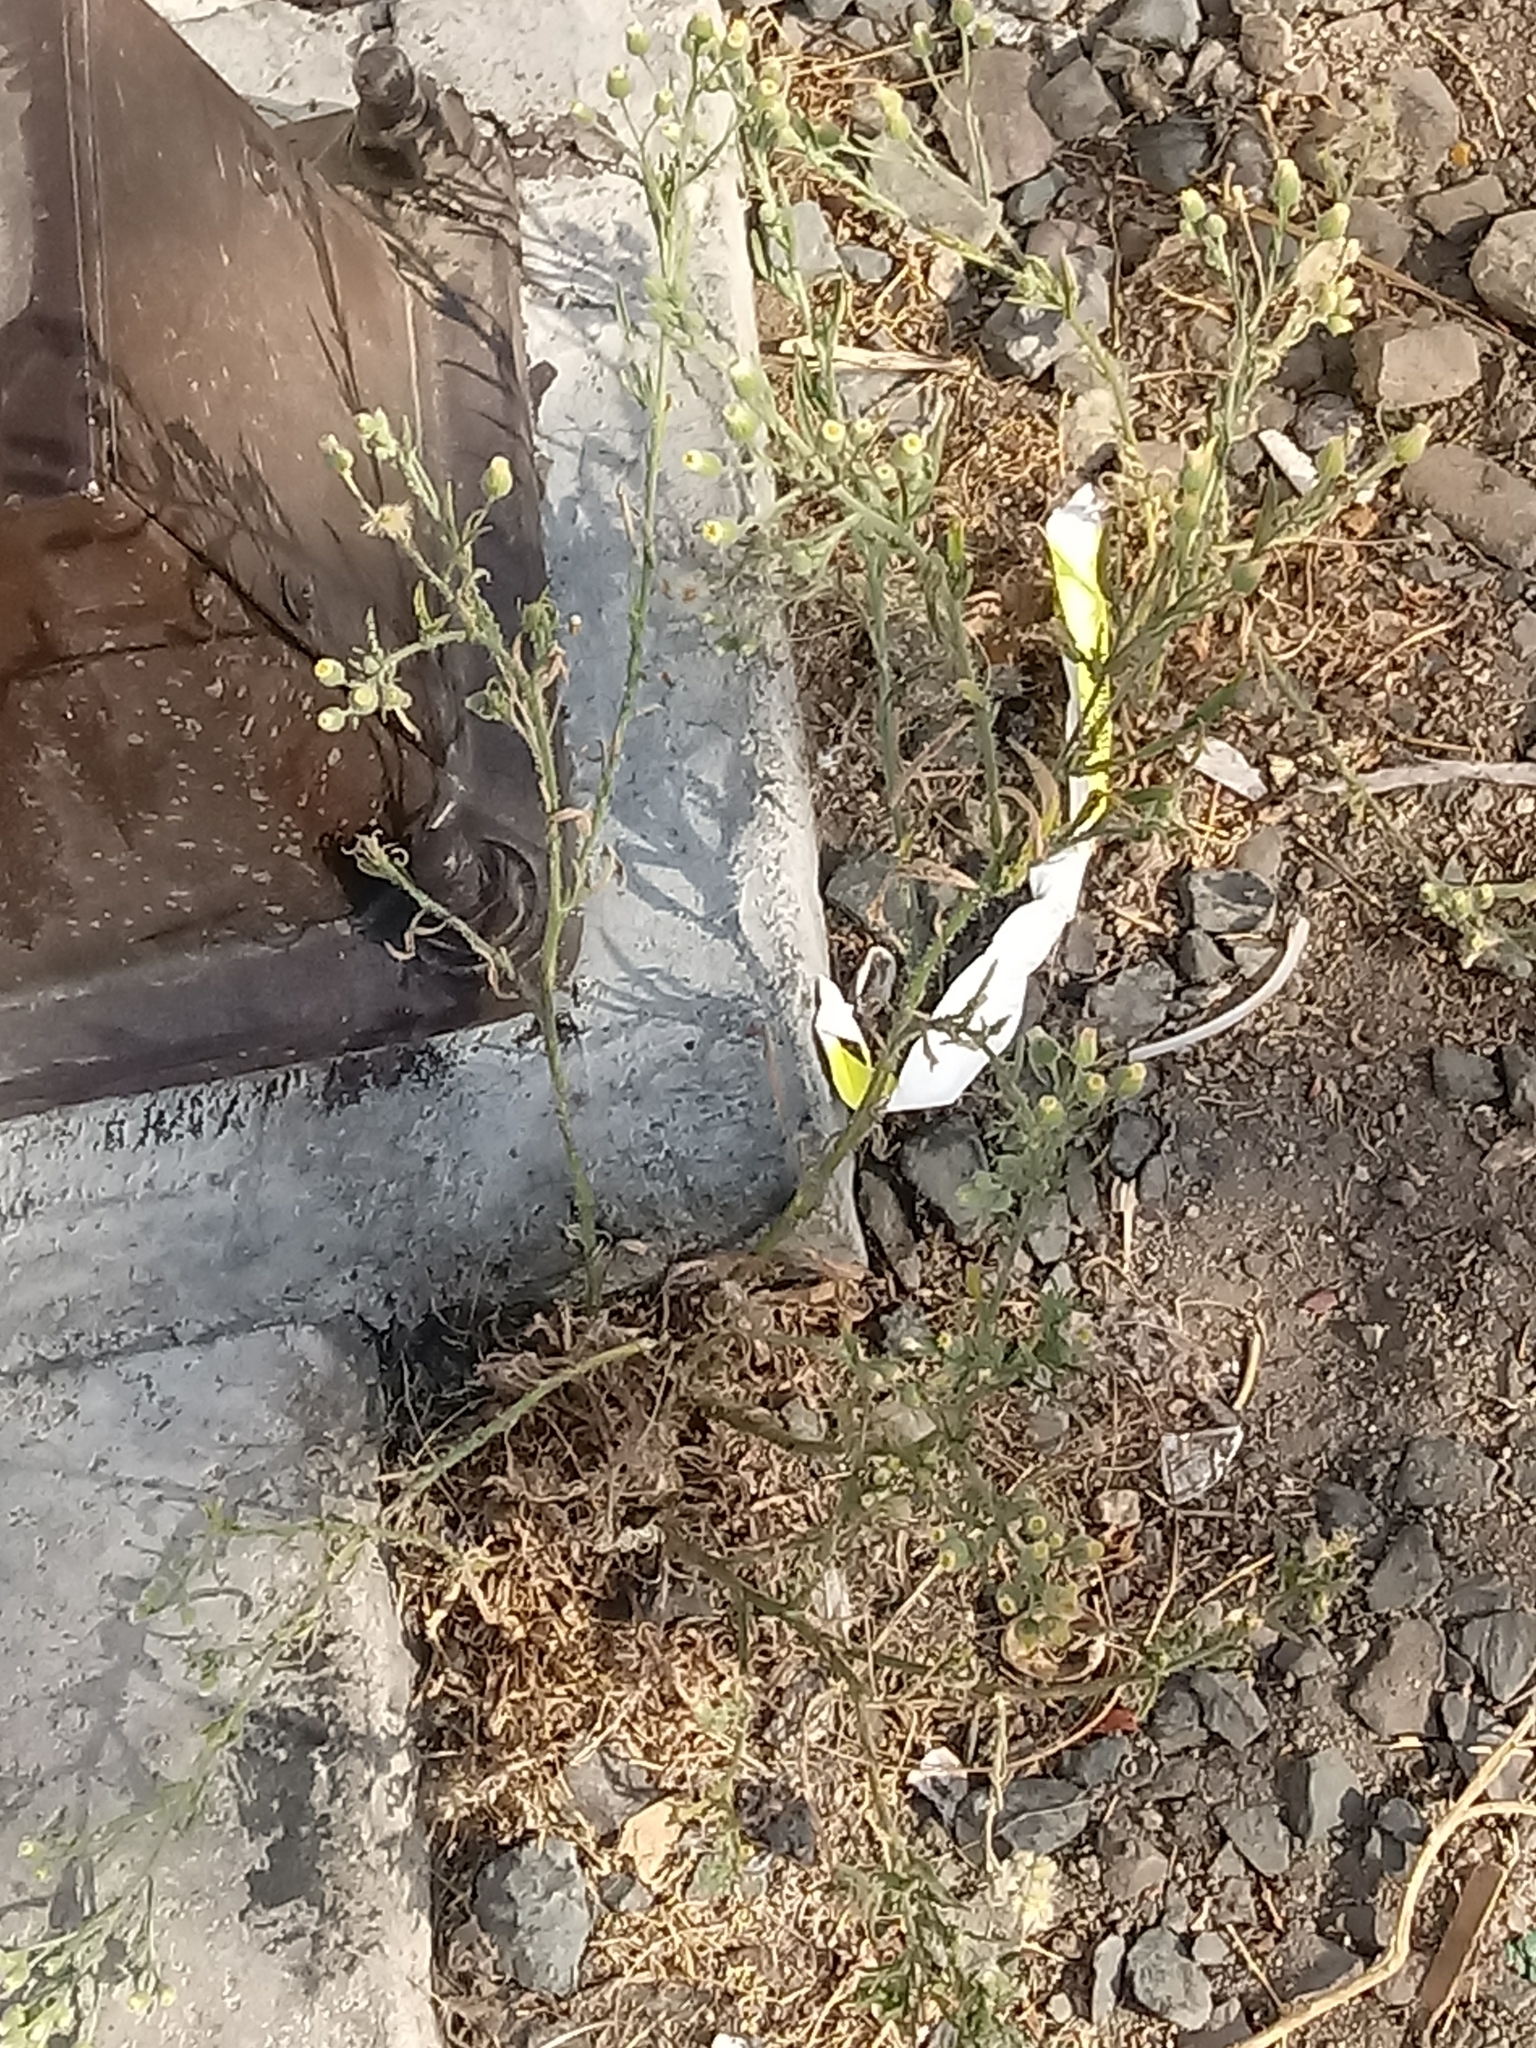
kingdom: Plantae
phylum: Tracheophyta
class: Magnoliopsida
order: Asterales
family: Asteraceae
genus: Erigeron
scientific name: Erigeron bonariensis
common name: Argentine fleabane
